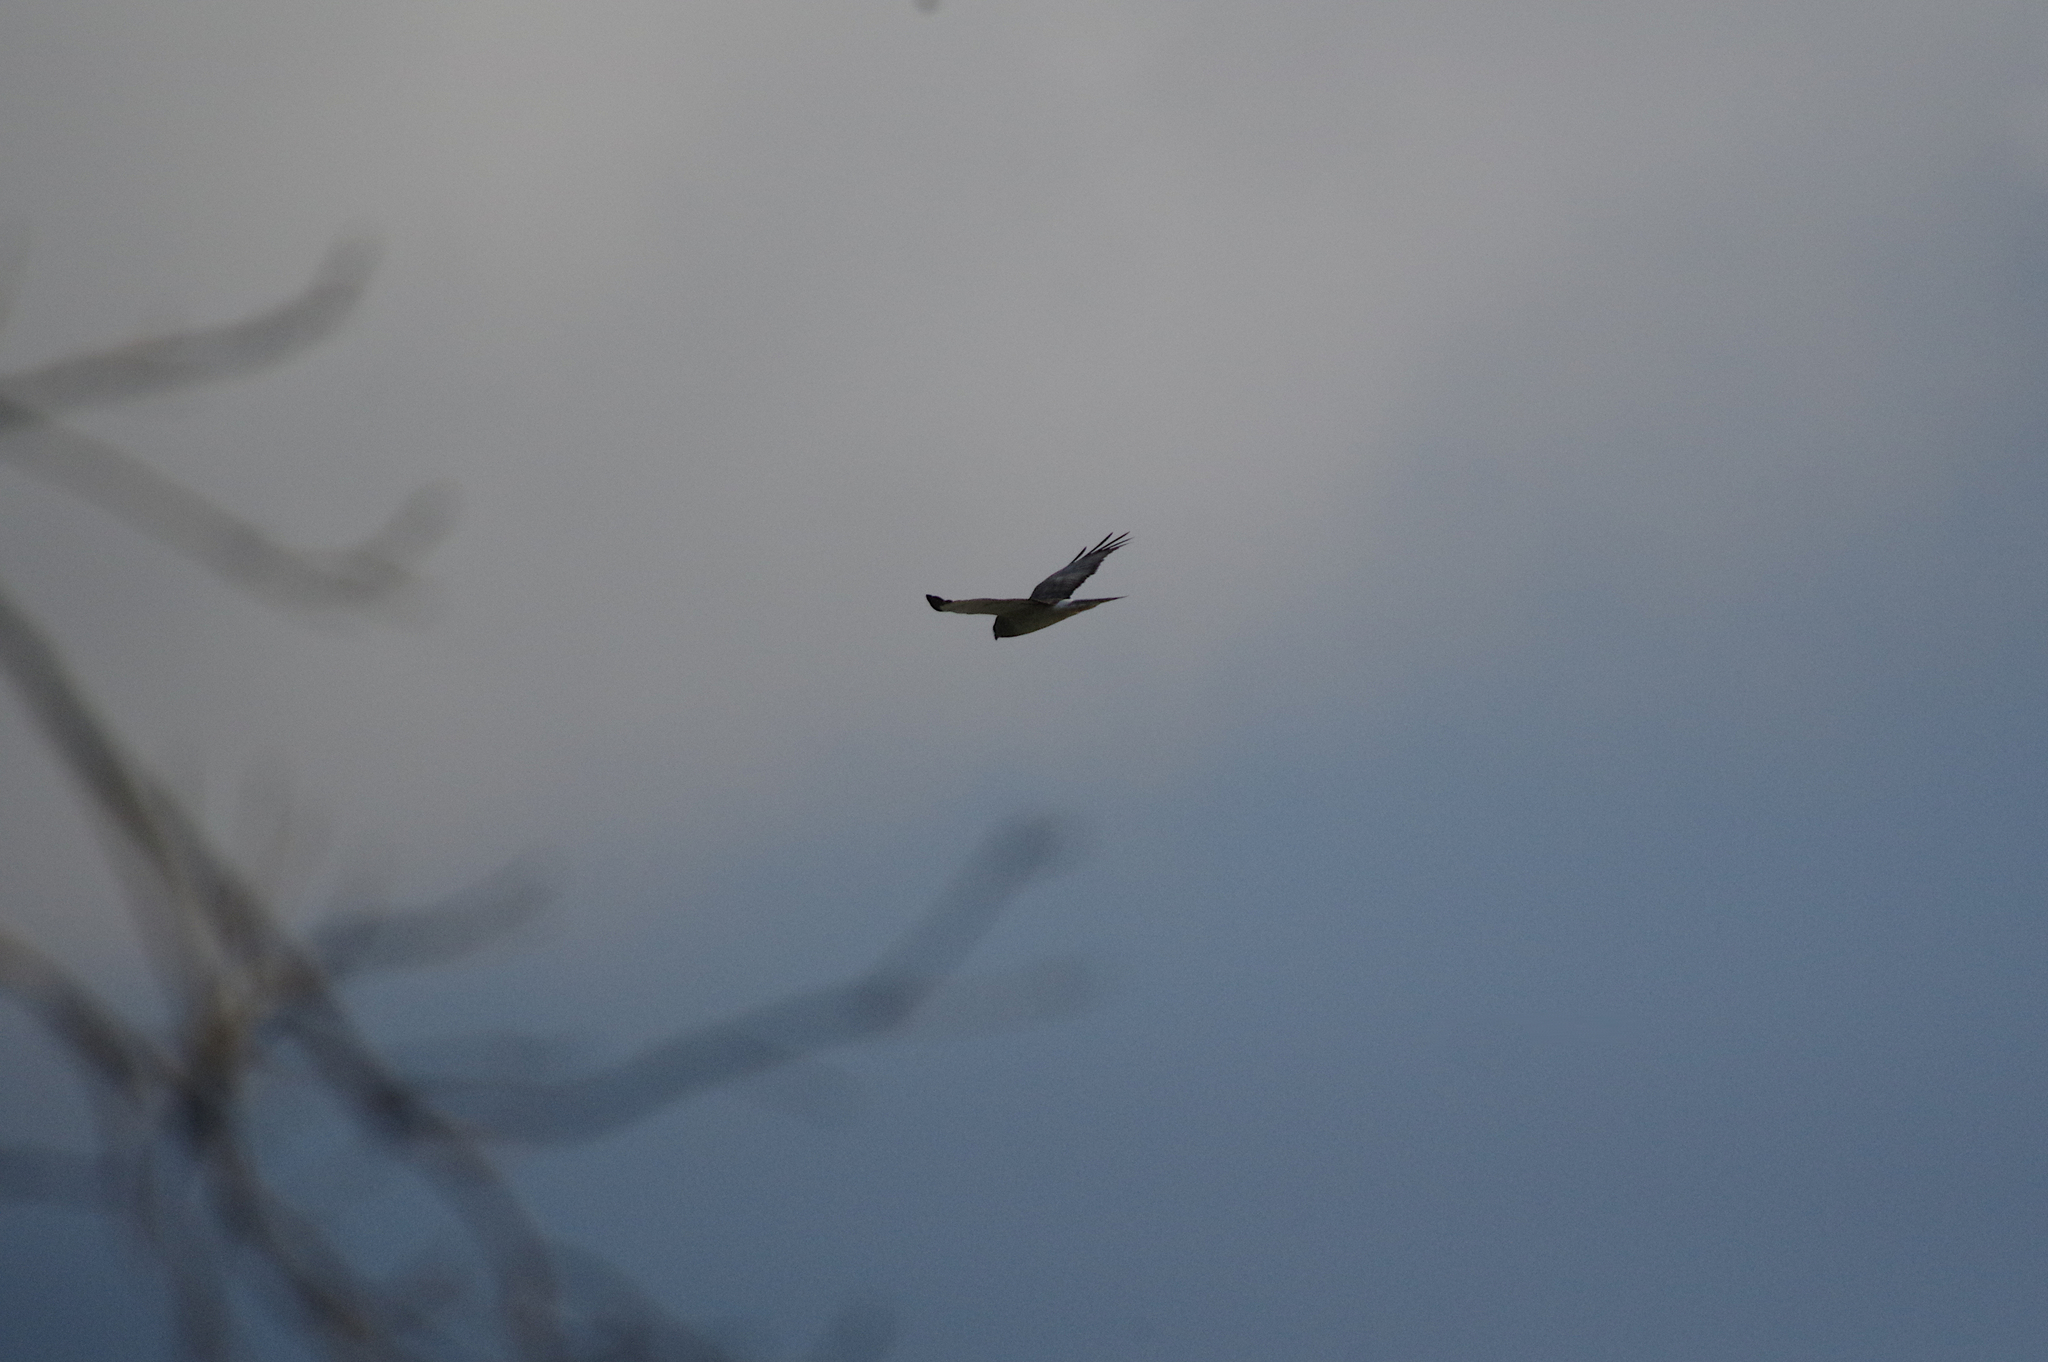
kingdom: Animalia
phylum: Chordata
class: Aves
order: Accipitriformes
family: Accipitridae
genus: Circus
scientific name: Circus cyaneus
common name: Hen harrier
